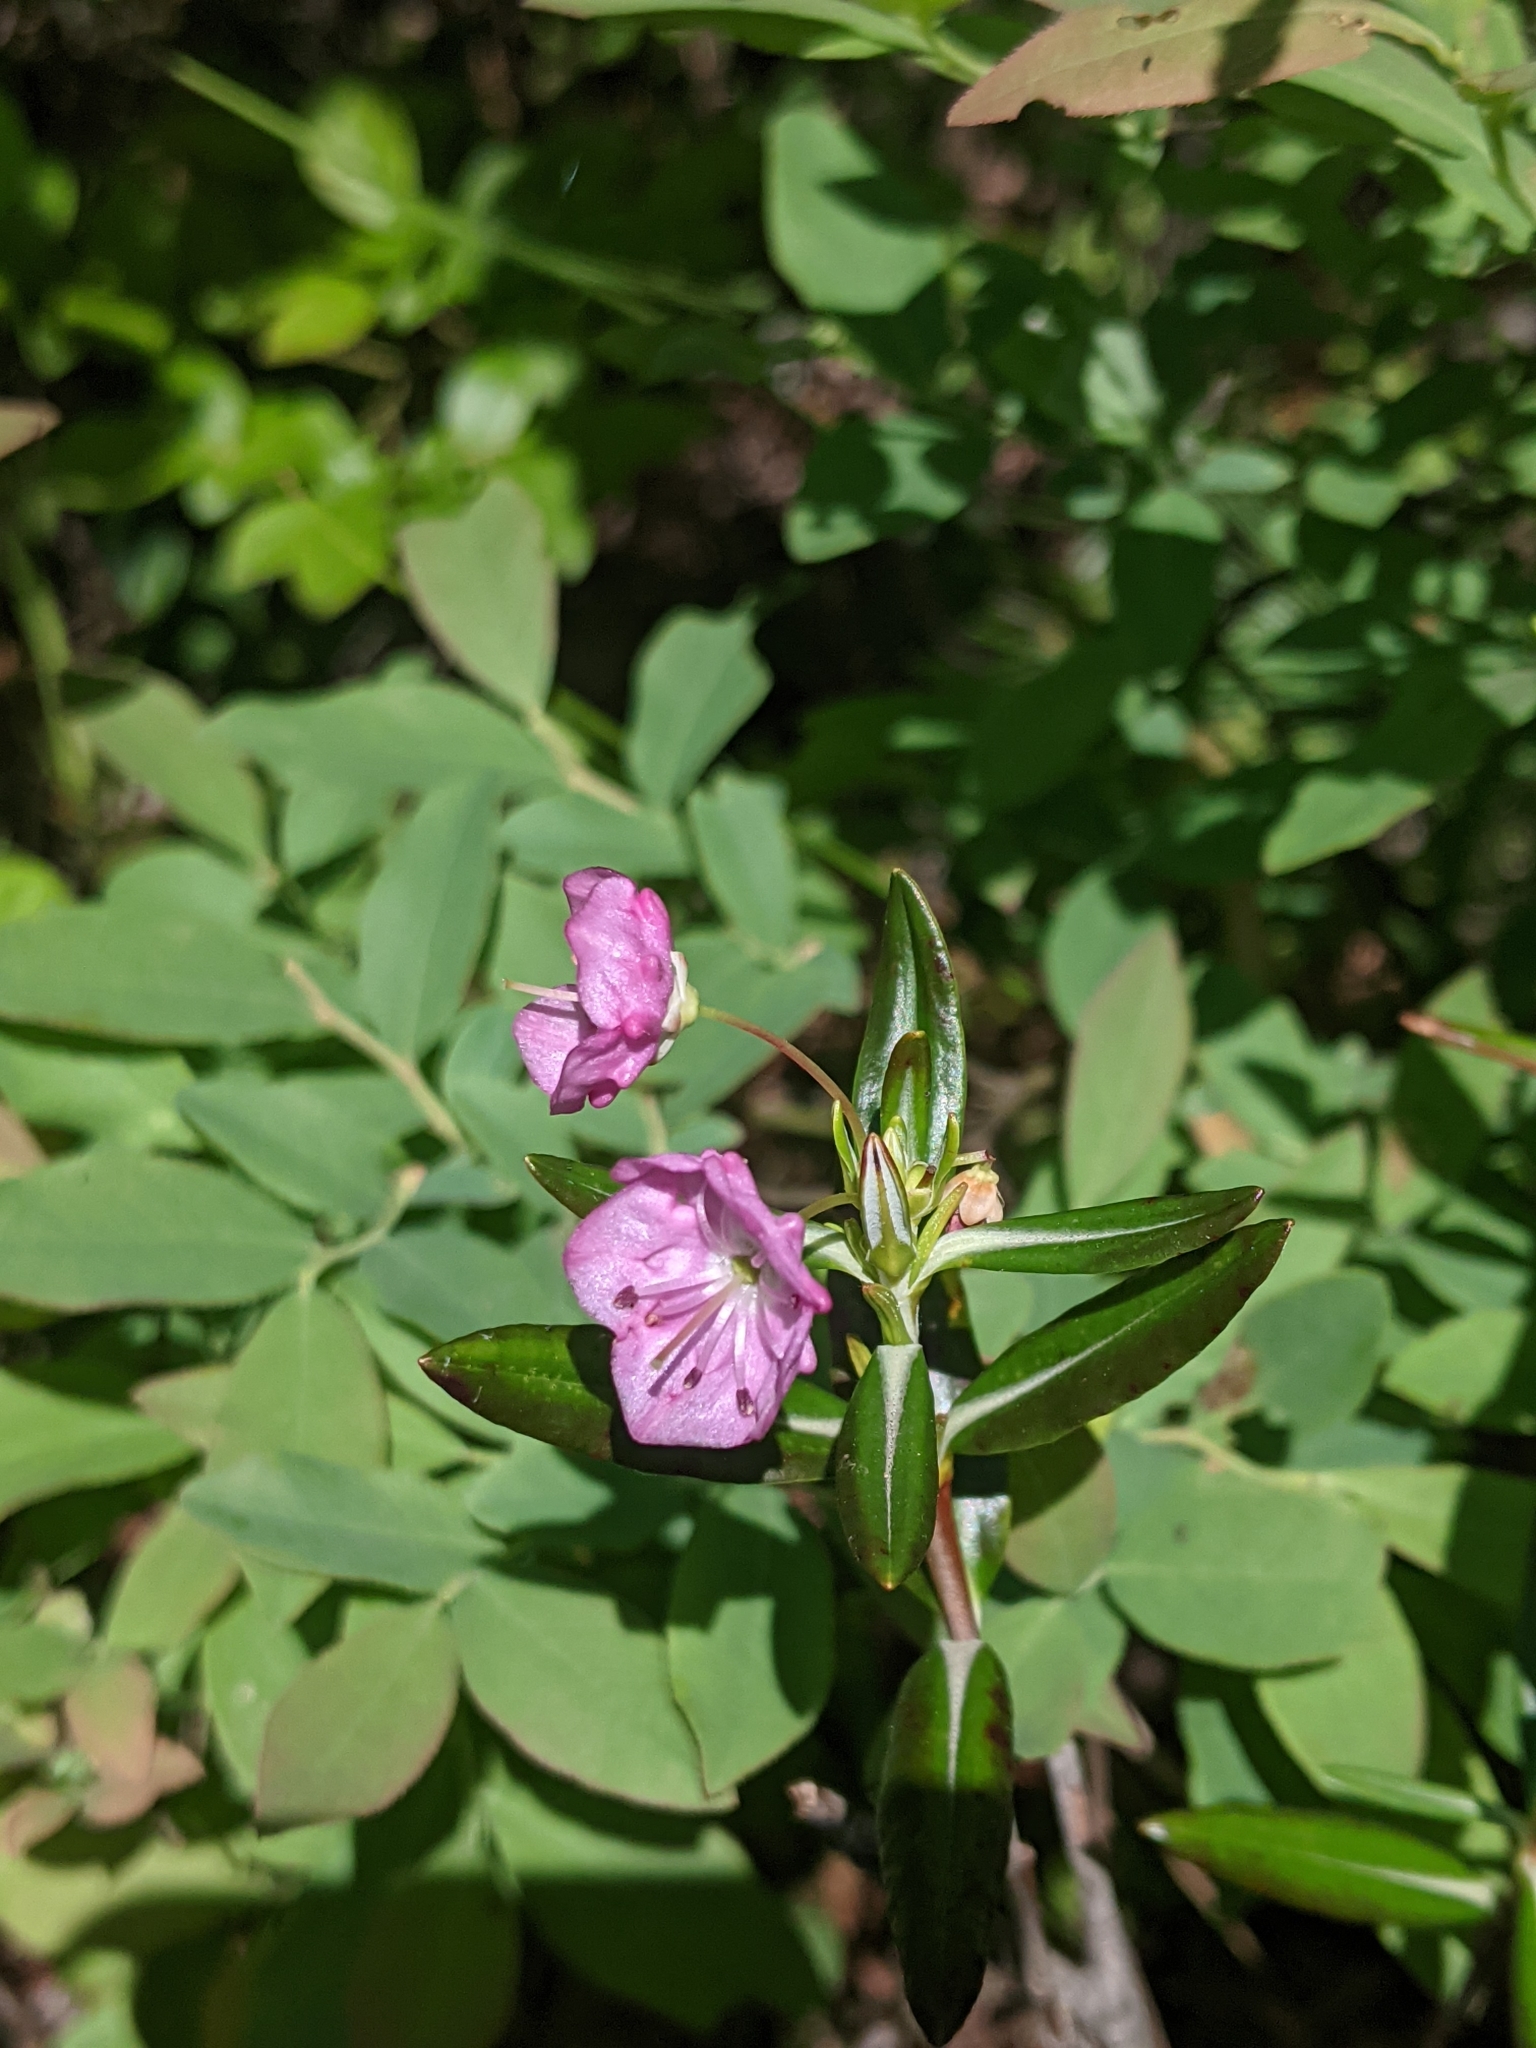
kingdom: Plantae
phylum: Tracheophyta
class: Magnoliopsida
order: Ericales
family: Ericaceae
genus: Kalmia
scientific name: Kalmia polifolia
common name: Bog-laurel
